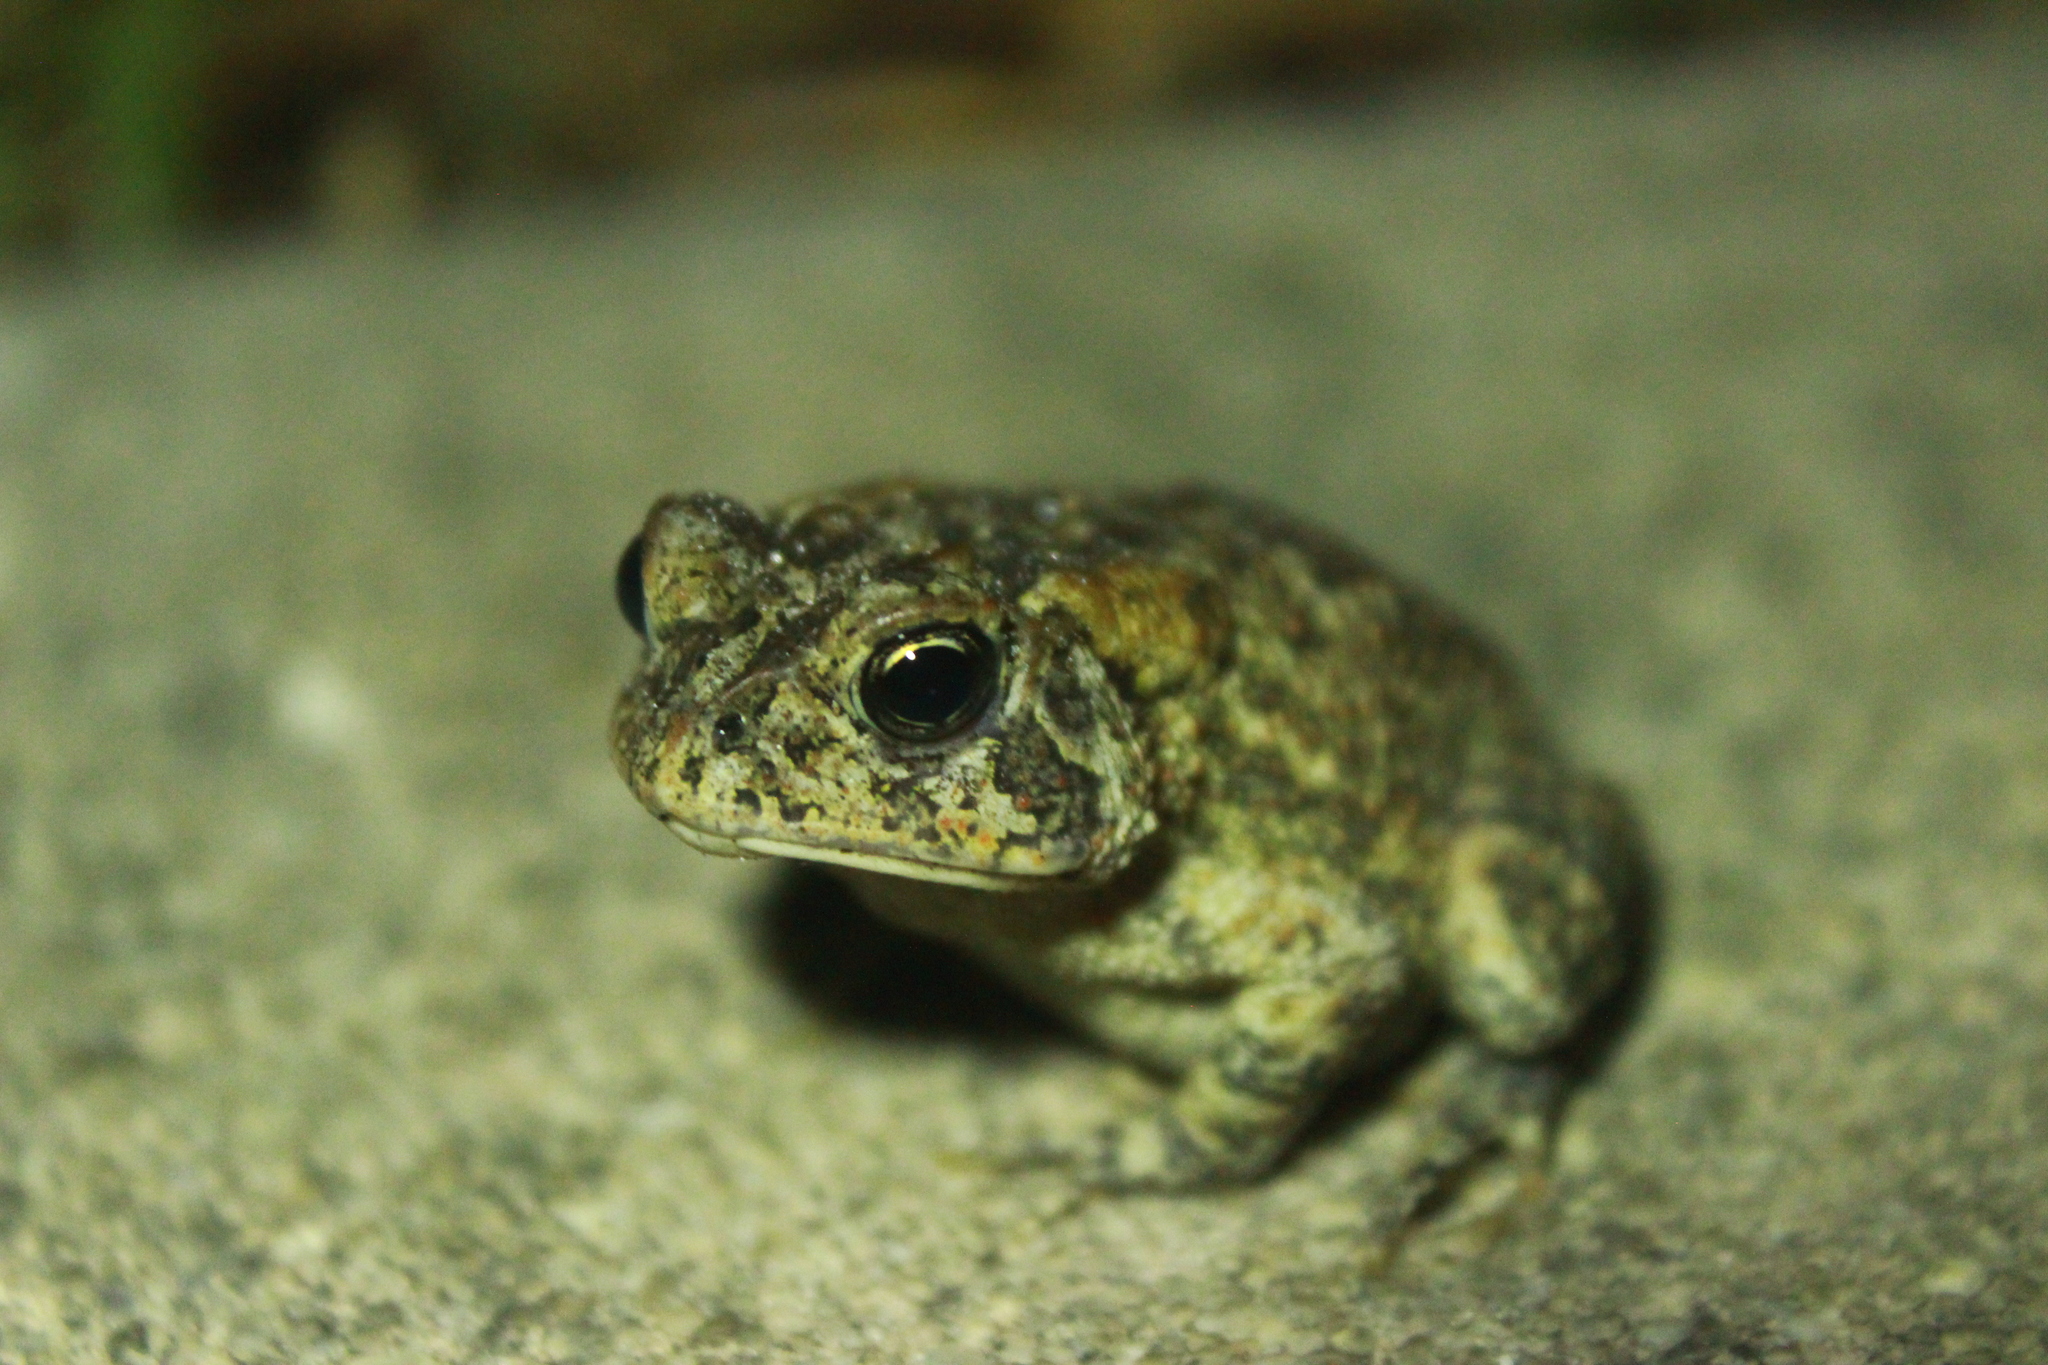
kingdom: Animalia
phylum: Chordata
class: Amphibia
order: Anura
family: Bufonidae
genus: Anaxyrus
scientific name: Anaxyrus terrestris
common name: Southern toad
